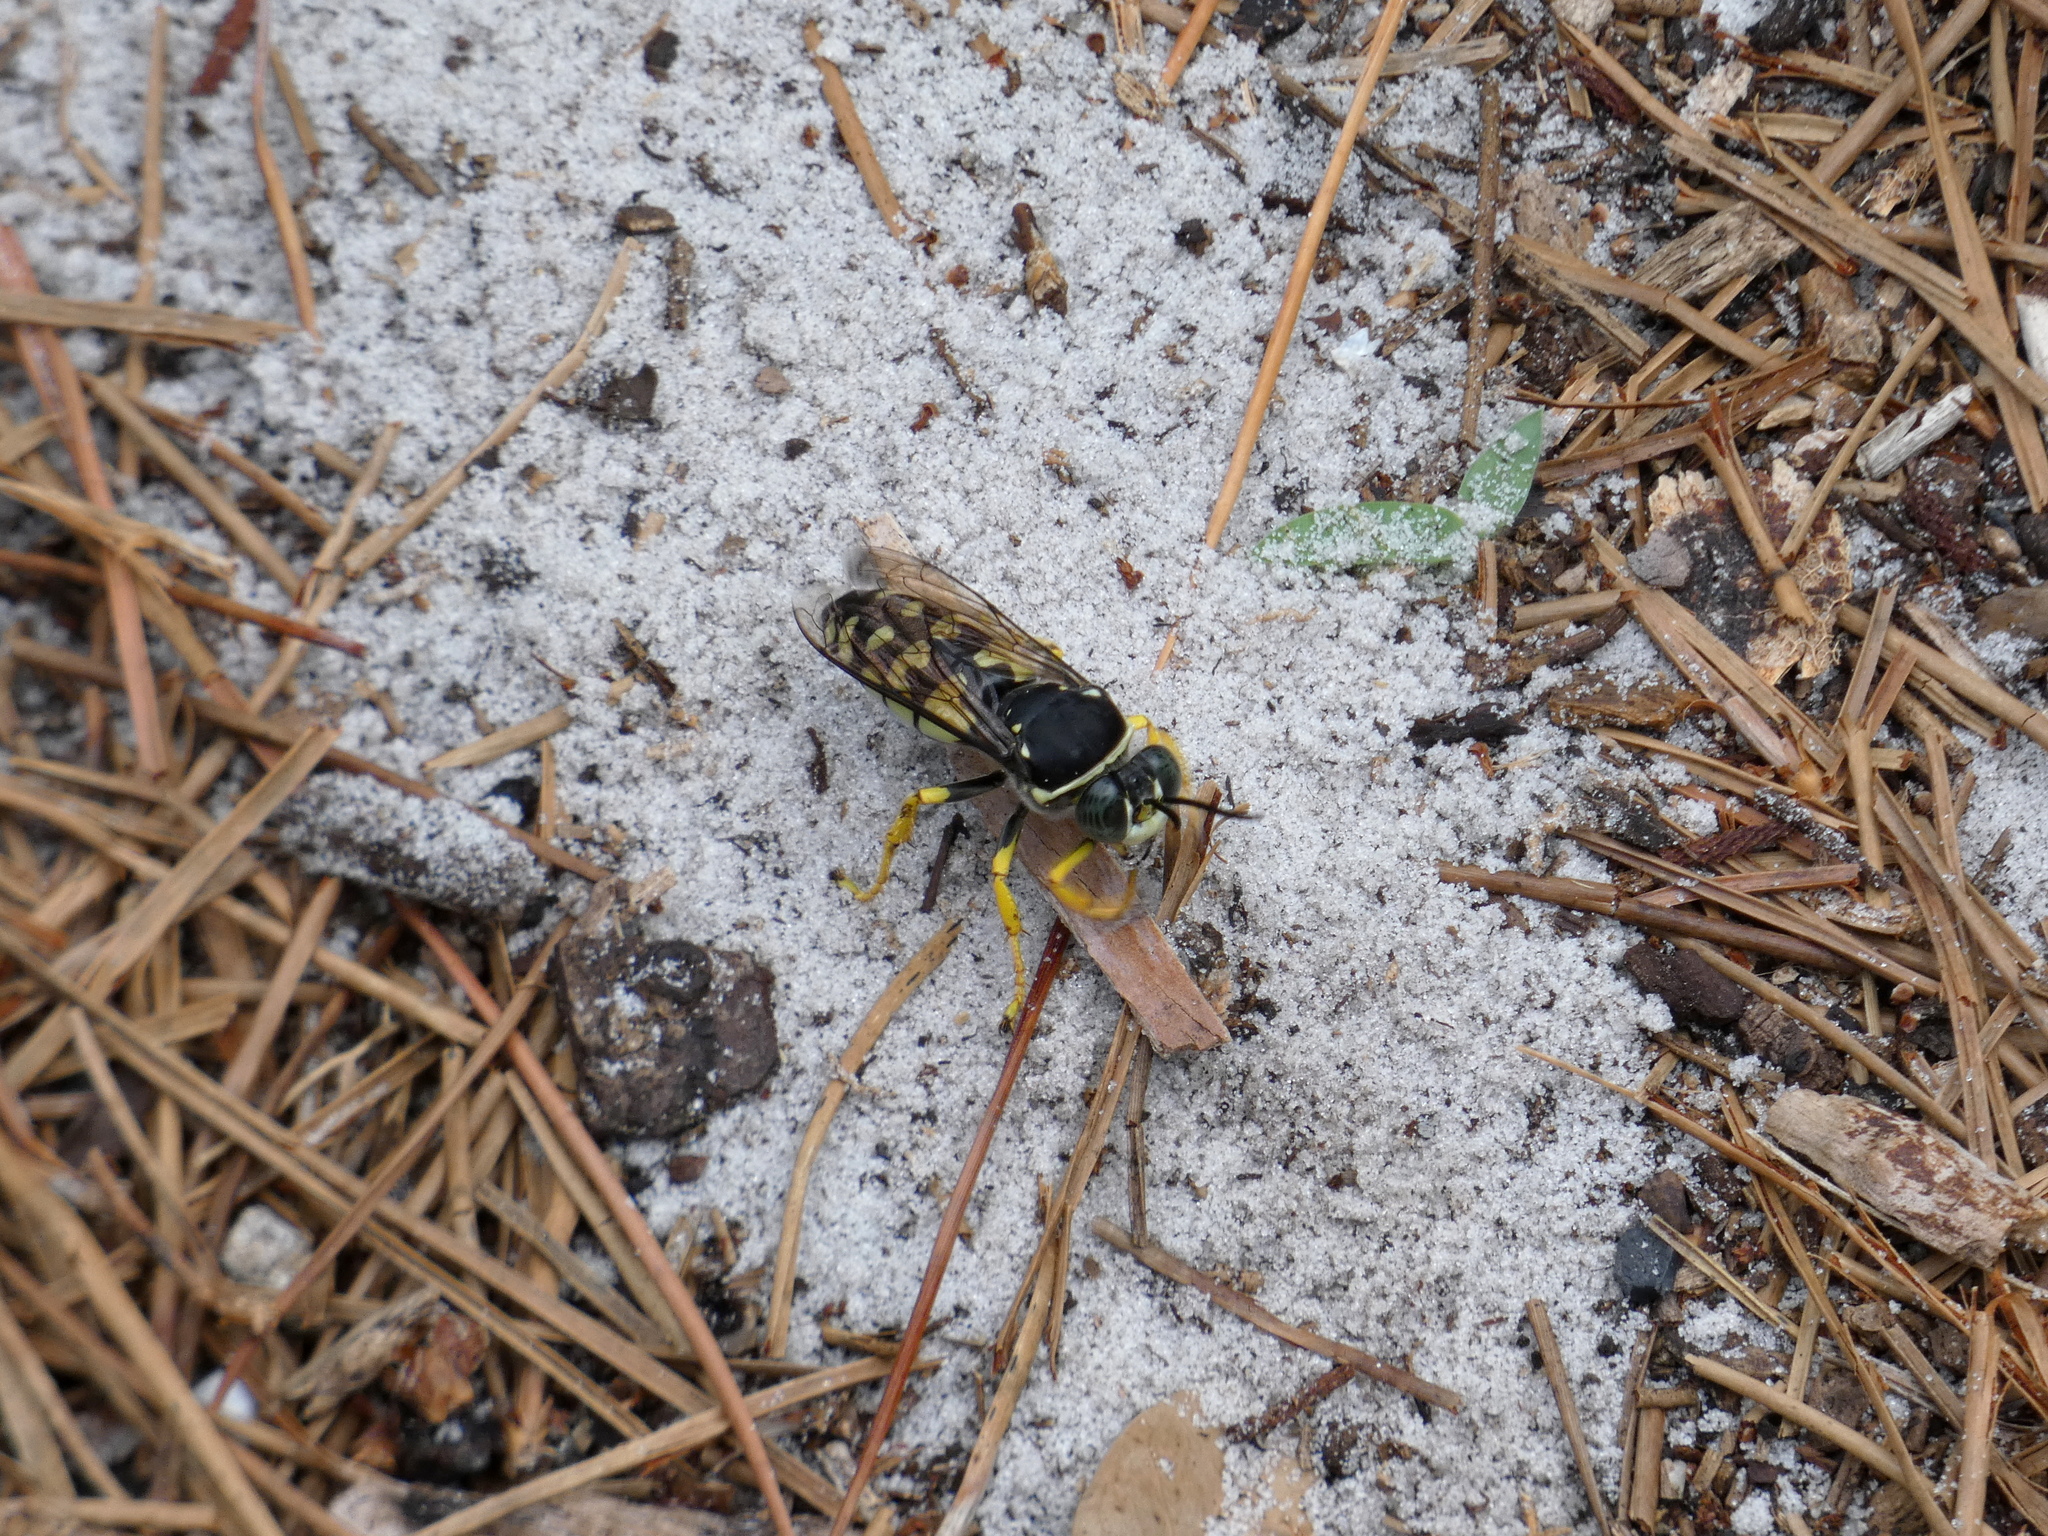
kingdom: Animalia
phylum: Arthropoda
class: Insecta
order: Hymenoptera
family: Crabronidae
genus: Stictia
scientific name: Stictia carolina
